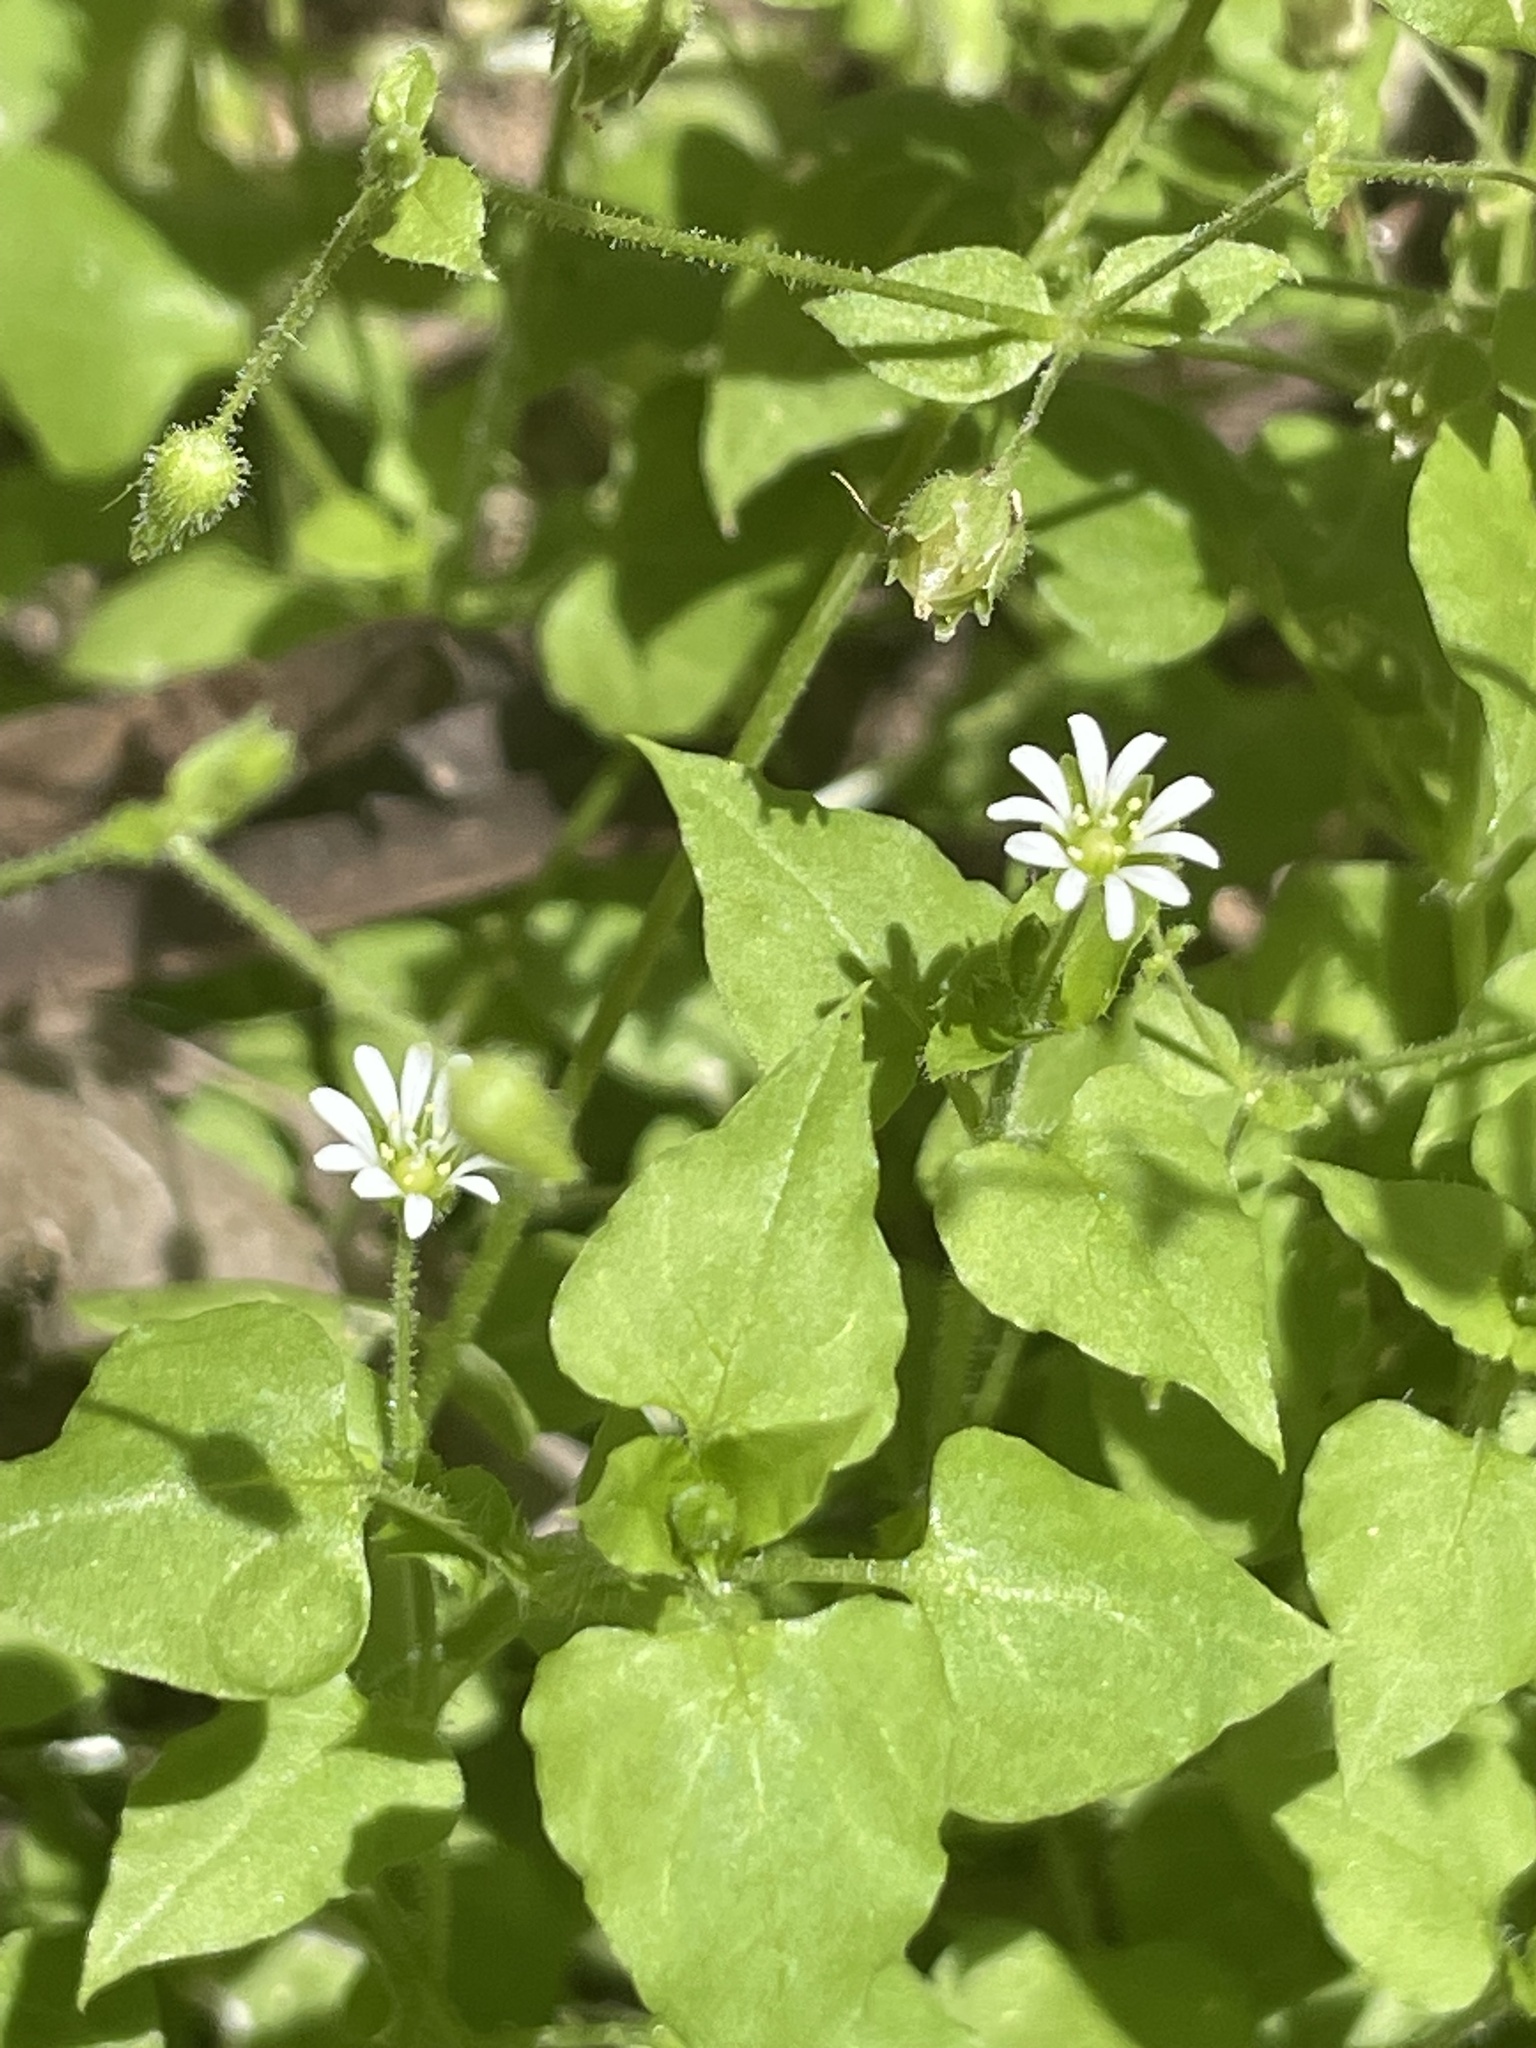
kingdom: Plantae
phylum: Tracheophyta
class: Magnoliopsida
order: Caryophyllales
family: Caryophyllaceae
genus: Stellaria
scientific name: Stellaria cuspidata
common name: Mexican chickweed
